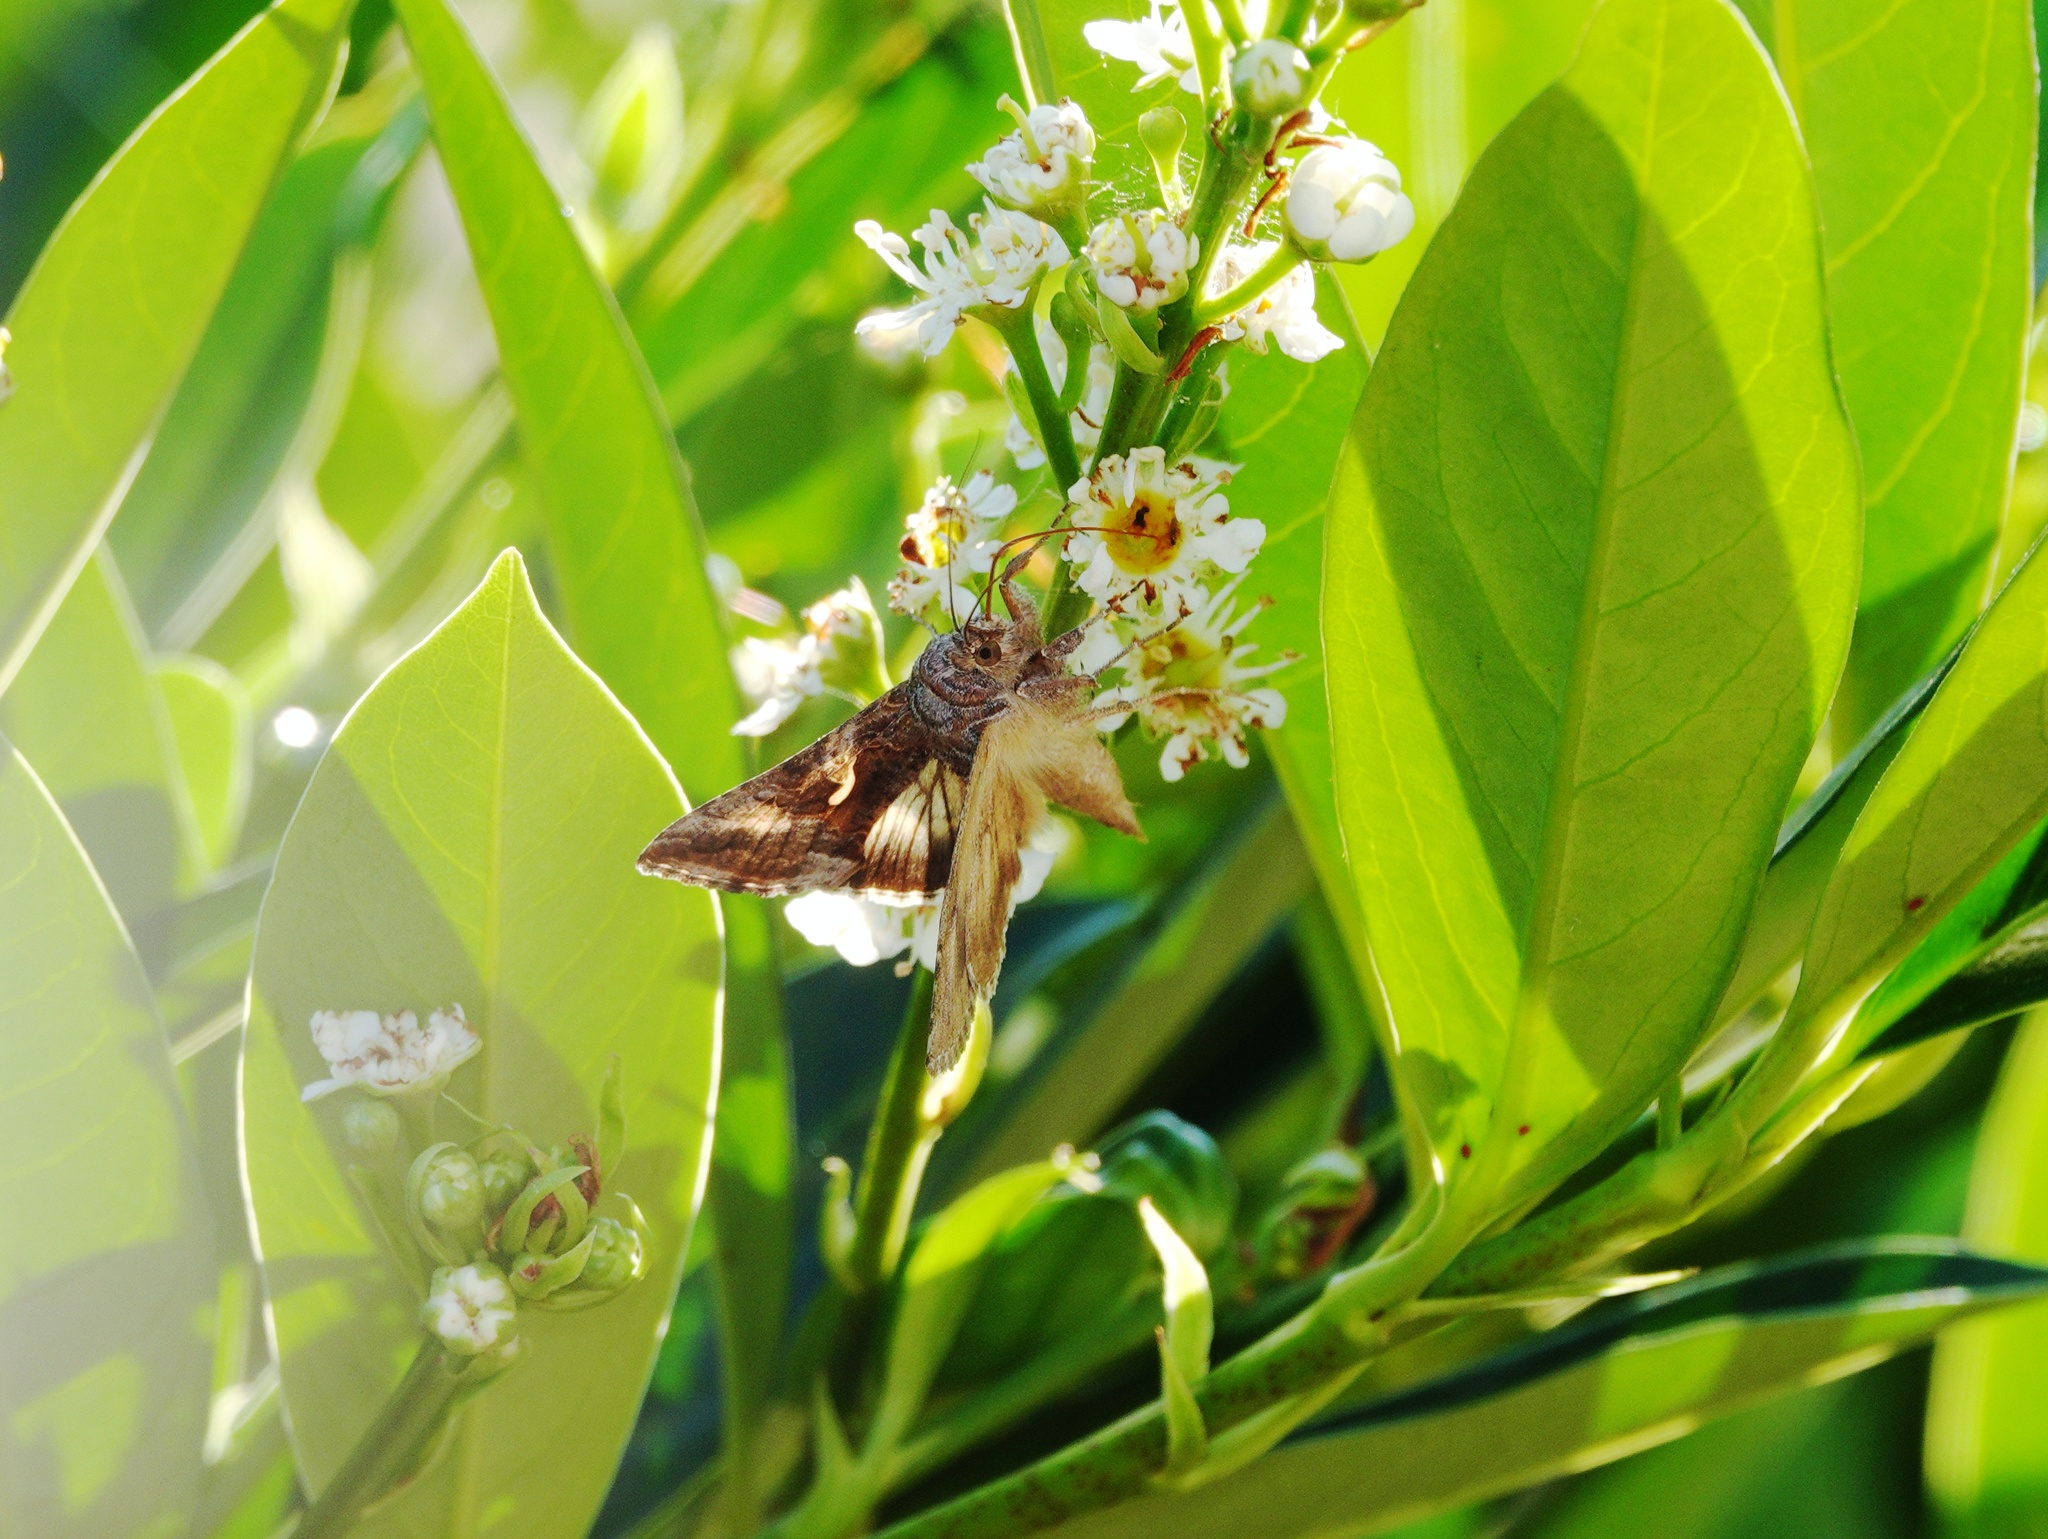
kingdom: Animalia
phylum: Arthropoda
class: Insecta
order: Lepidoptera
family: Noctuidae
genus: Autographa
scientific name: Autographa gamma
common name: Silver y
